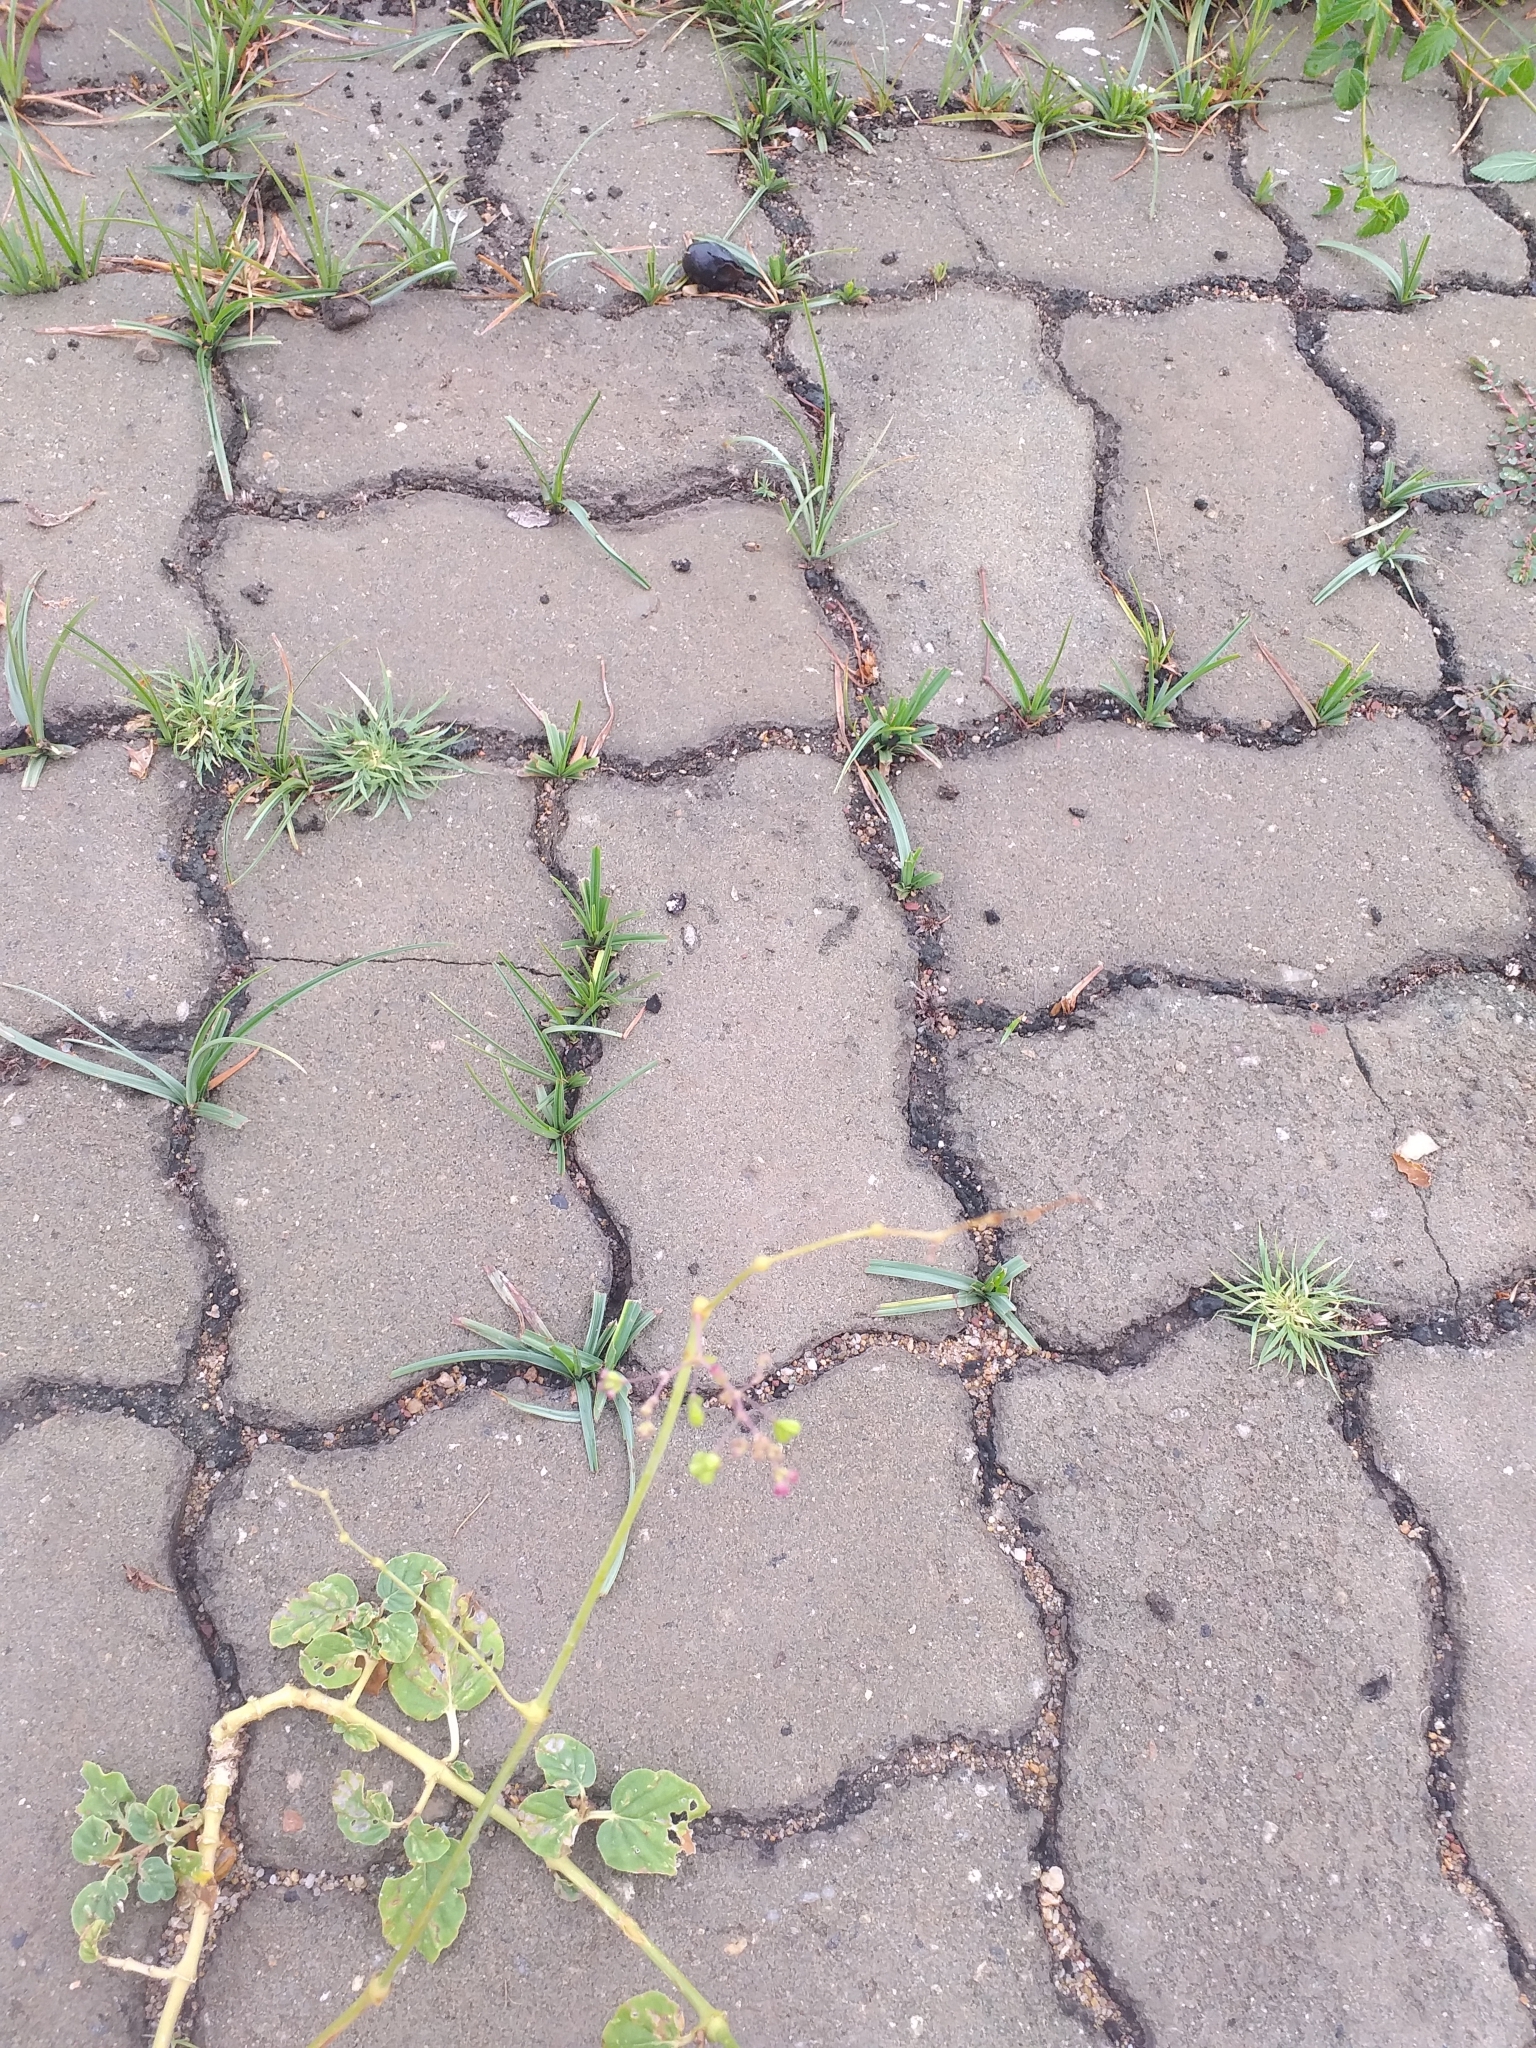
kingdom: Plantae
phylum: Tracheophyta
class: Magnoliopsida
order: Caryophyllales
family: Nyctaginaceae
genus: Boerhavia
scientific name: Boerhavia diffusa
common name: Red spiderling
